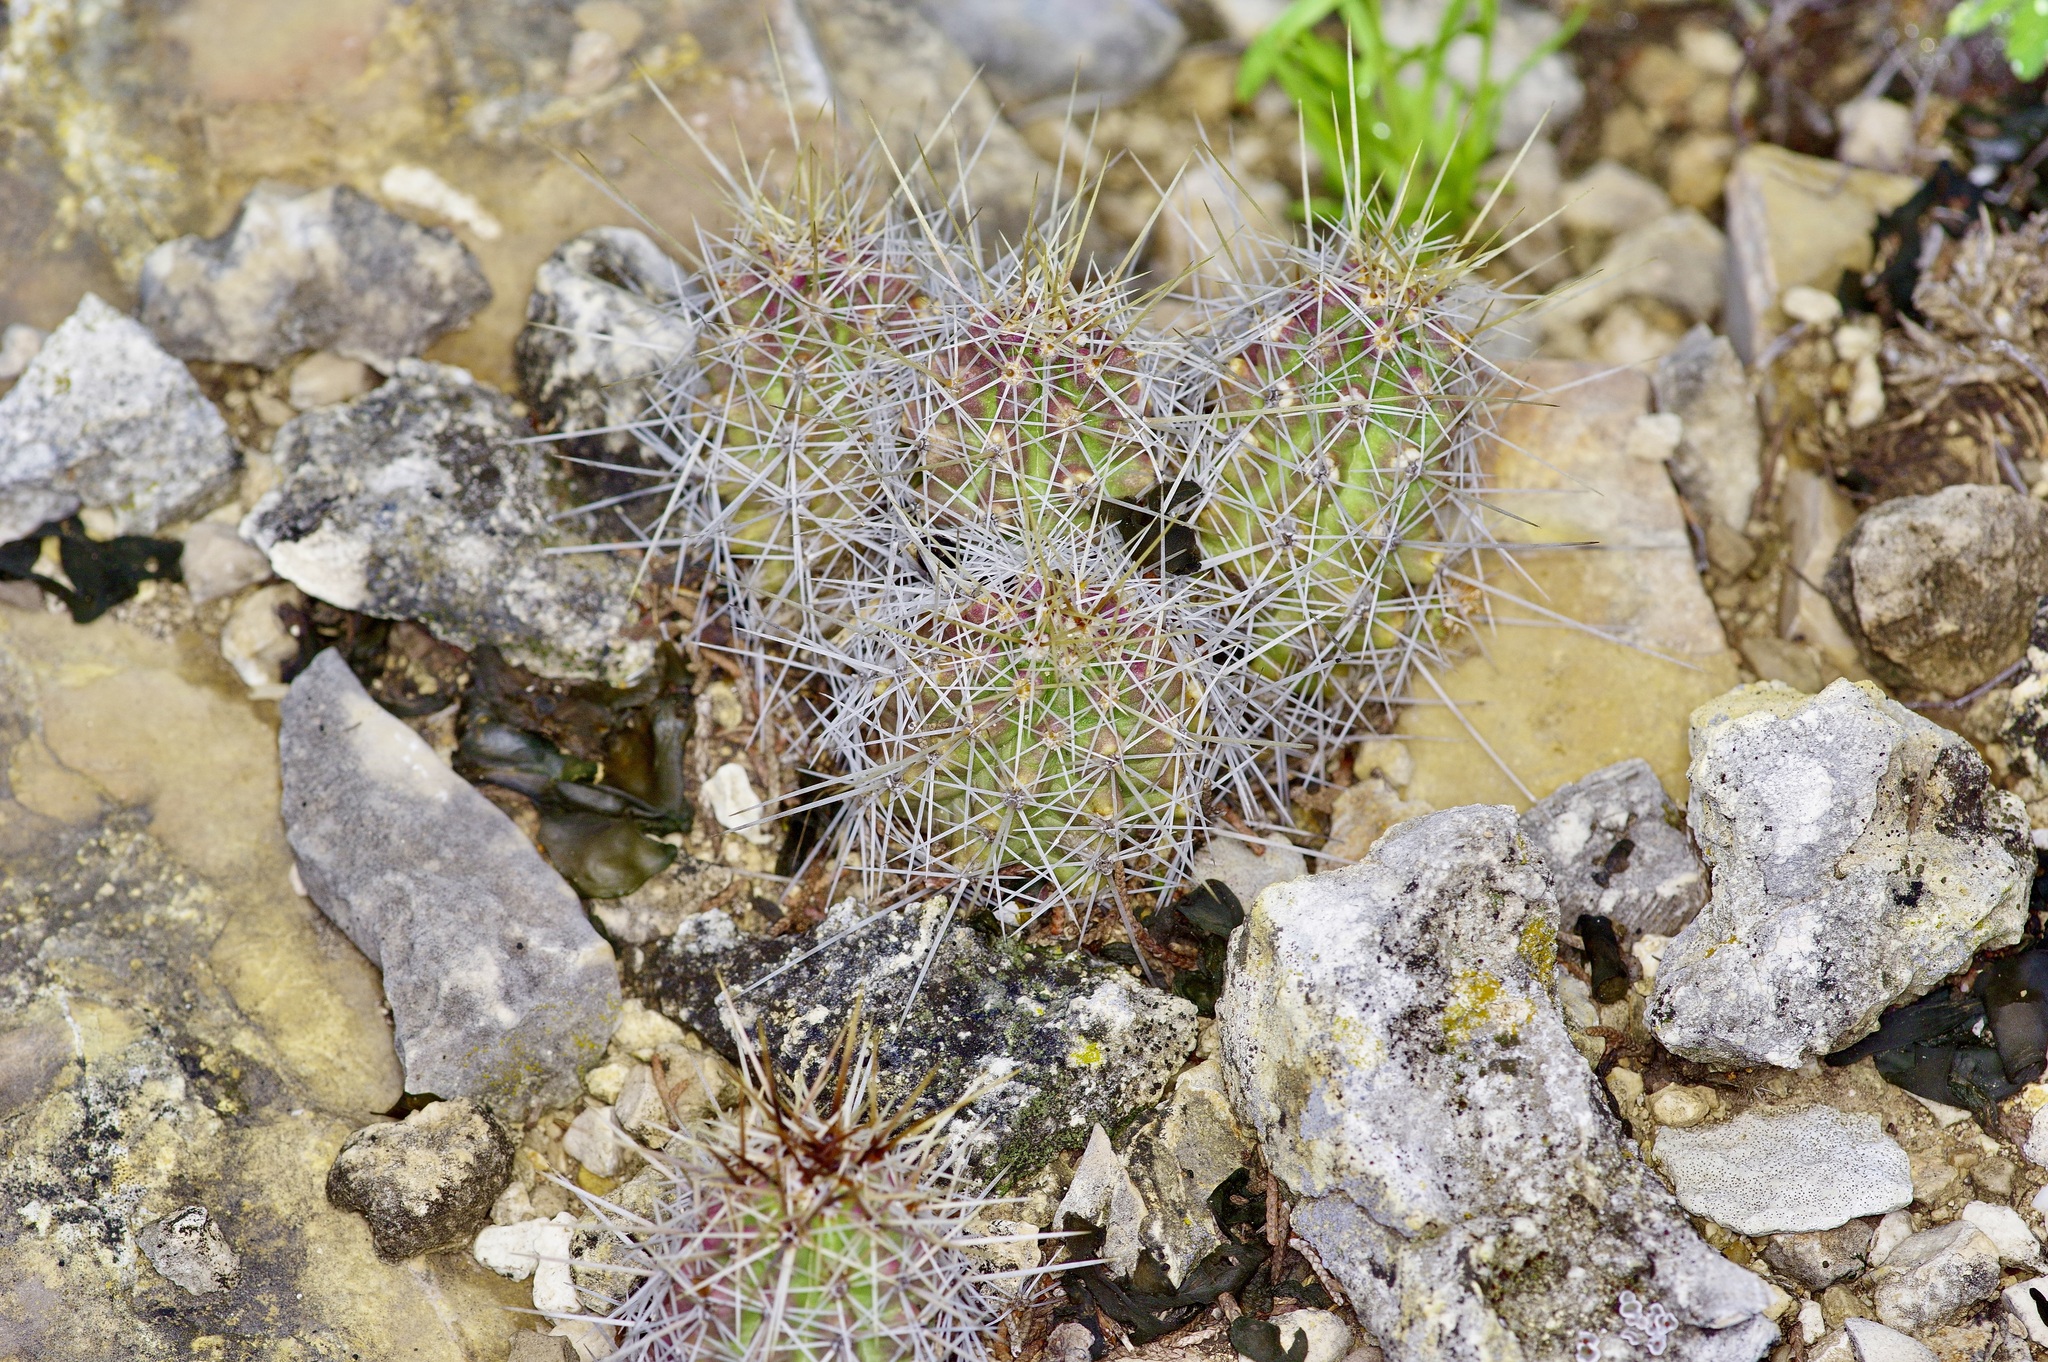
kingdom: Plantae
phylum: Tracheophyta
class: Magnoliopsida
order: Caryophyllales
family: Cactaceae
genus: Echinocereus
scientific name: Echinocereus enneacanthus
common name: Pitaya
